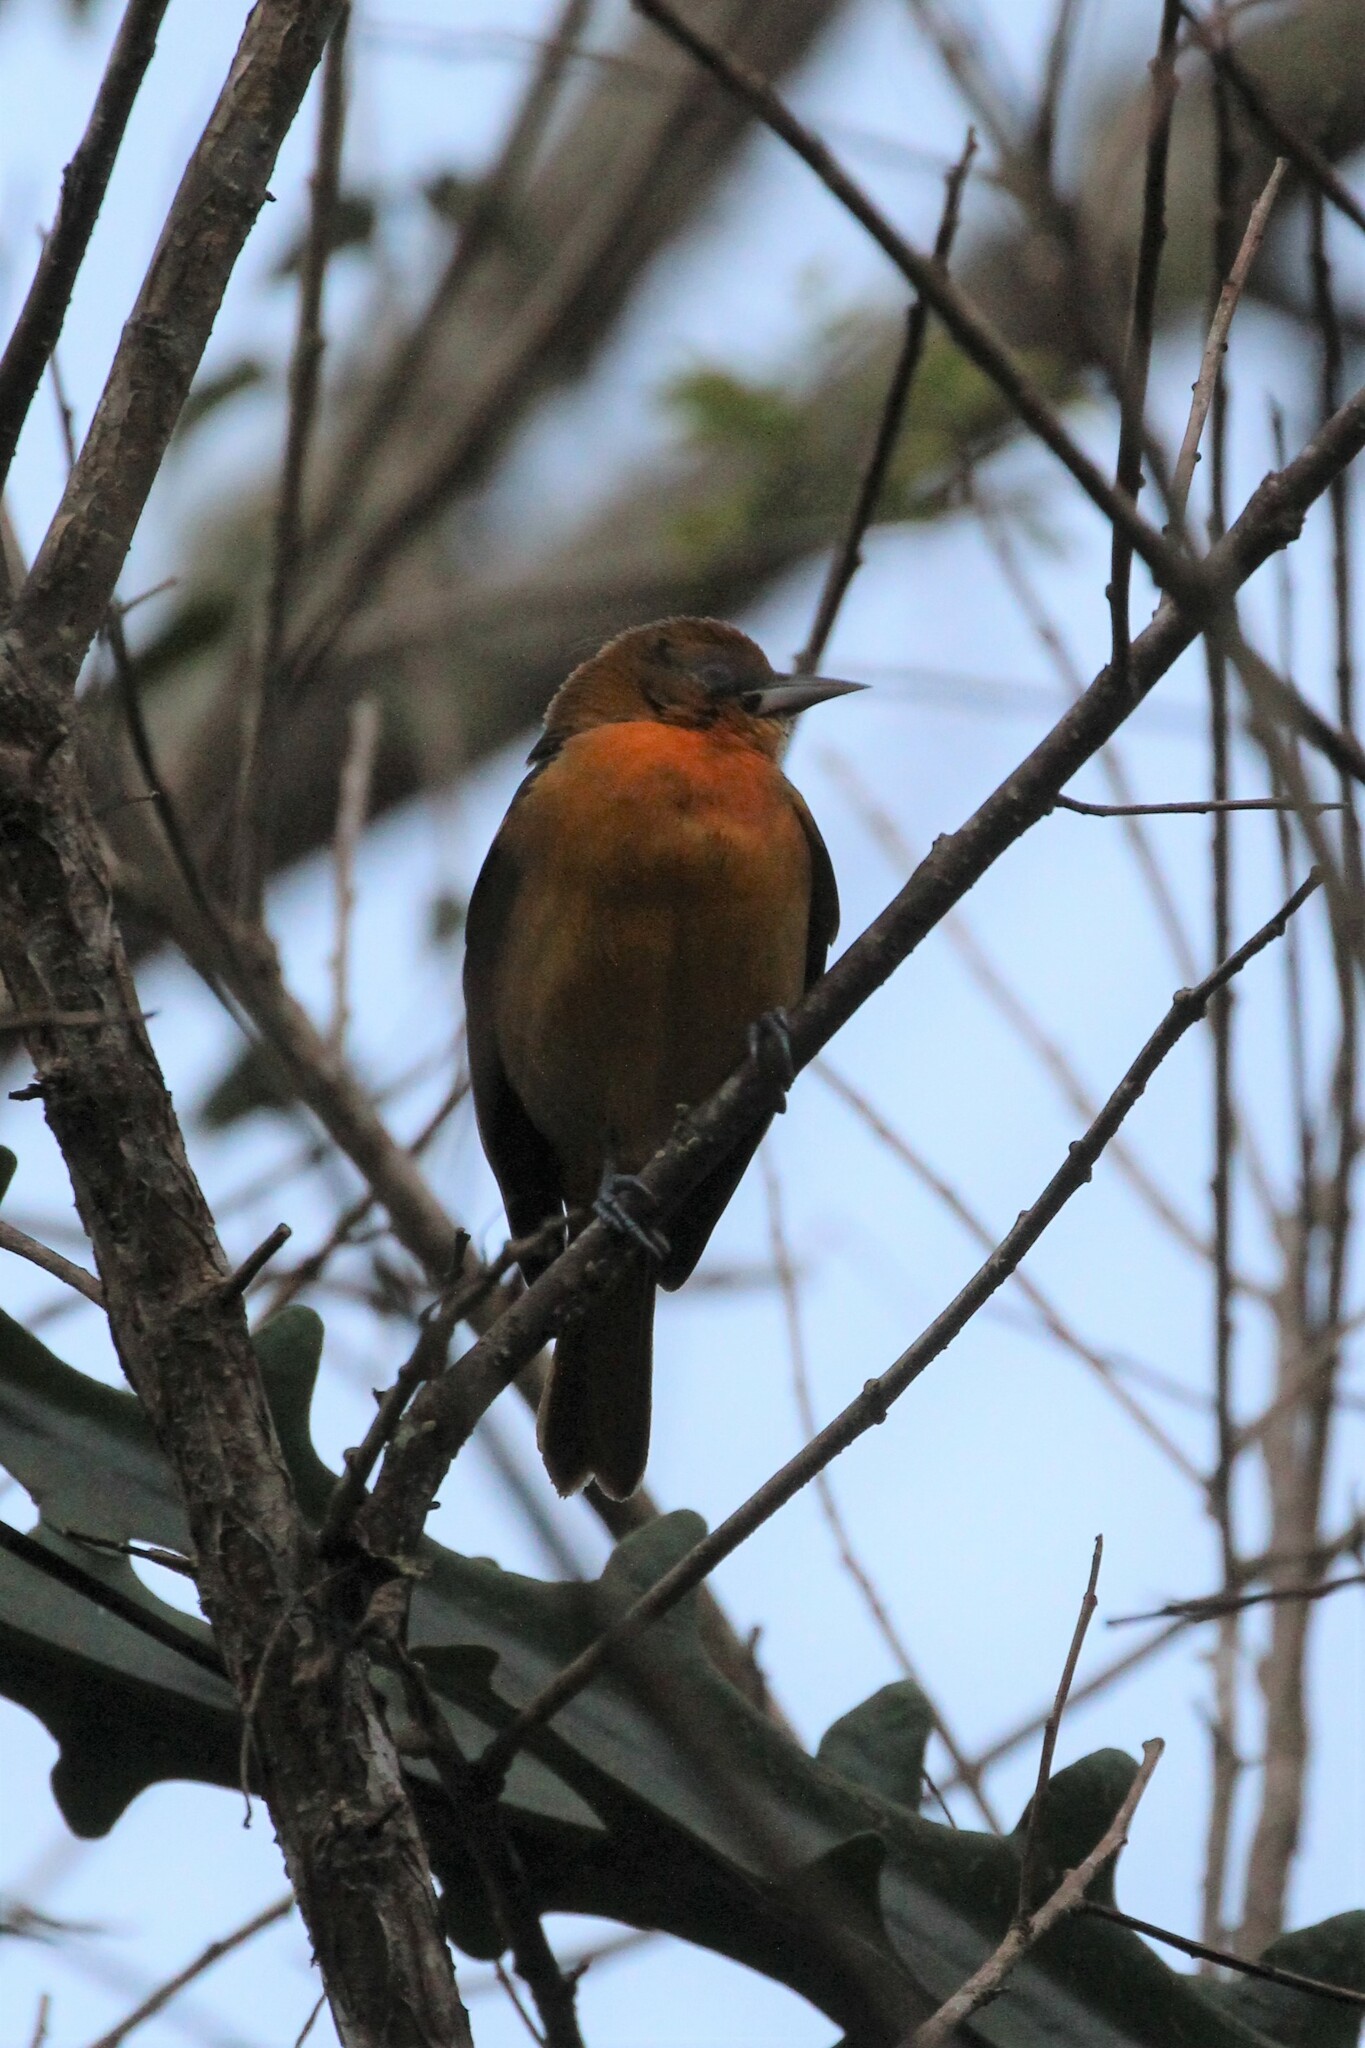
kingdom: Animalia
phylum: Chordata
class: Aves
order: Passeriformes
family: Icteridae
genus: Icterus
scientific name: Icterus galbula
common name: Baltimore oriole
